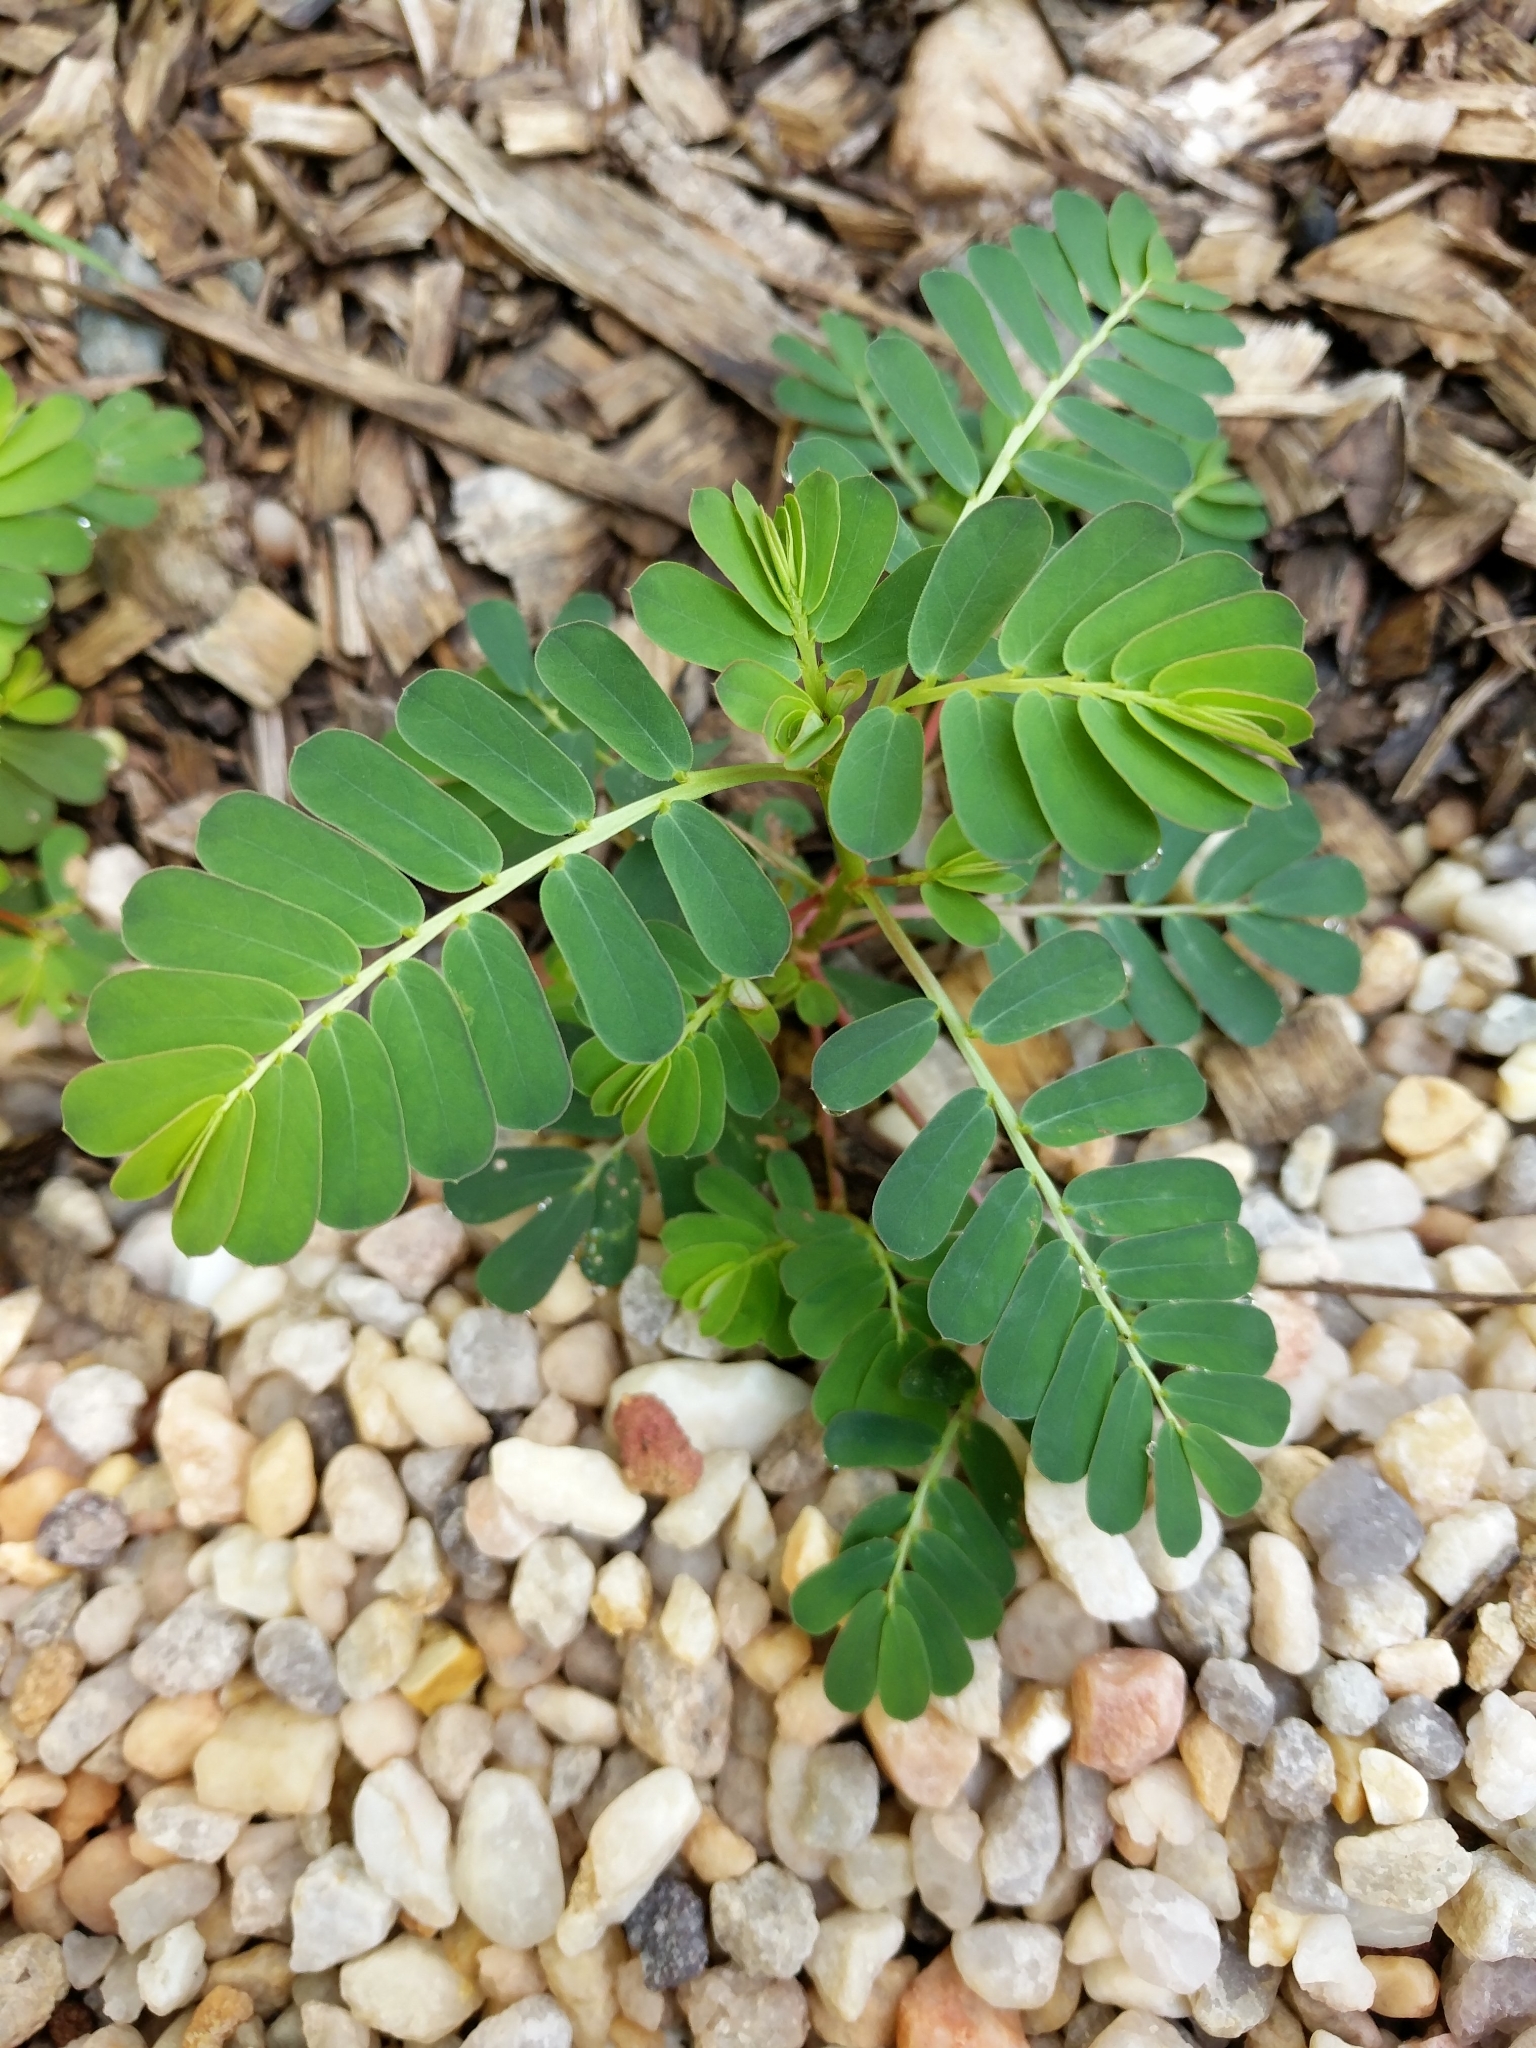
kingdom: Plantae
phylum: Tracheophyta
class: Magnoliopsida
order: Malpighiales
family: Phyllanthaceae
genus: Phyllanthus
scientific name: Phyllanthus urinaria
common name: Chamber bitter
